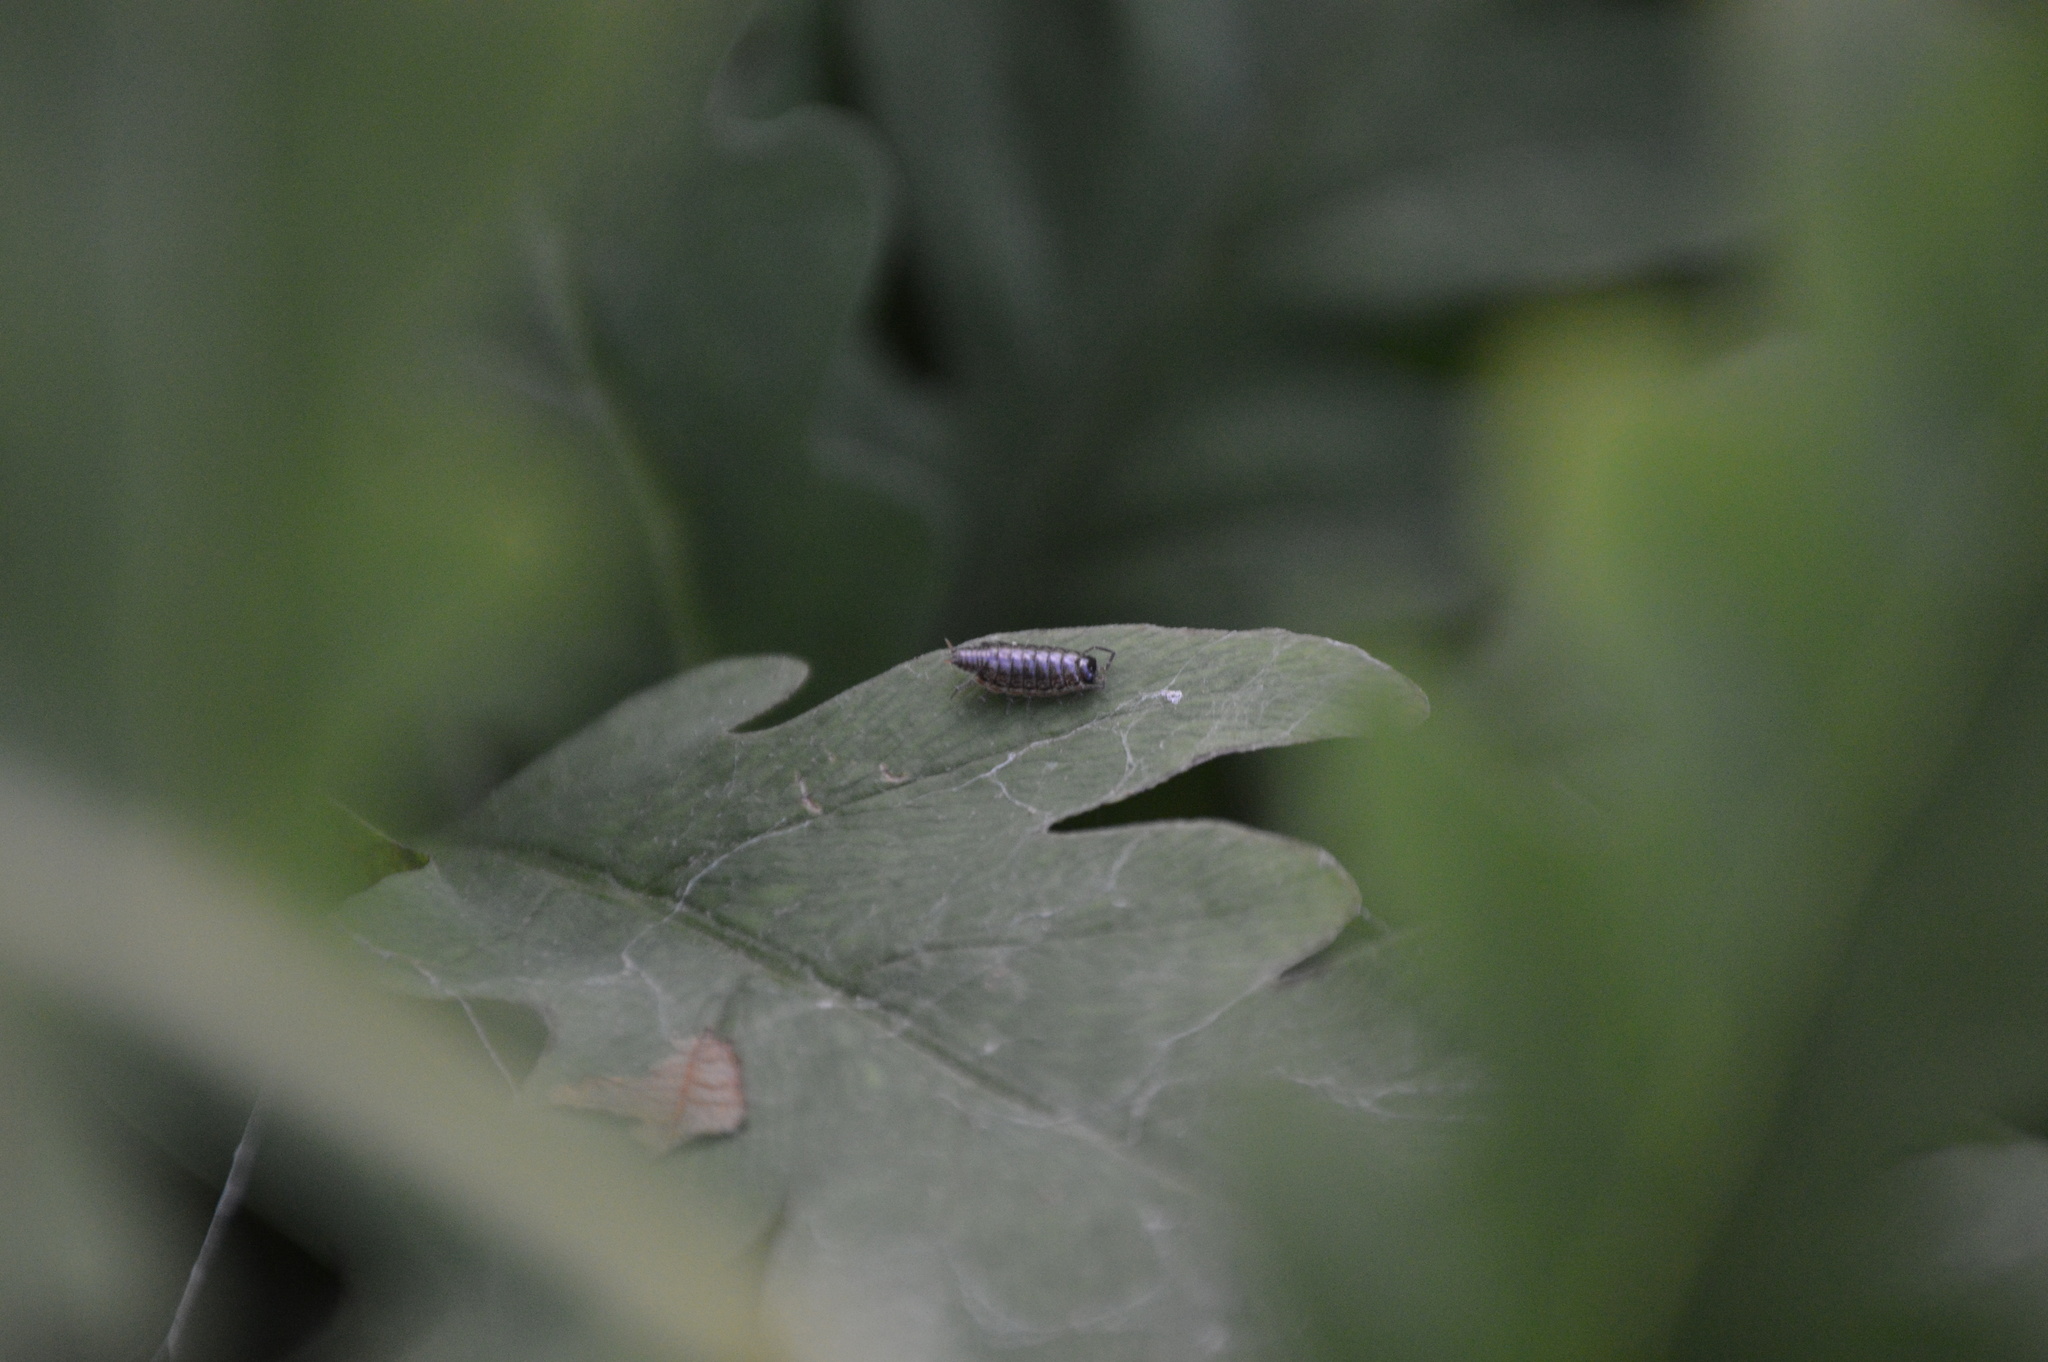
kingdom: Animalia
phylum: Arthropoda
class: Malacostraca
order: Isopoda
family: Philosciidae
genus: Philoscia
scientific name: Philoscia muscorum
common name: Common striped woodlouse
